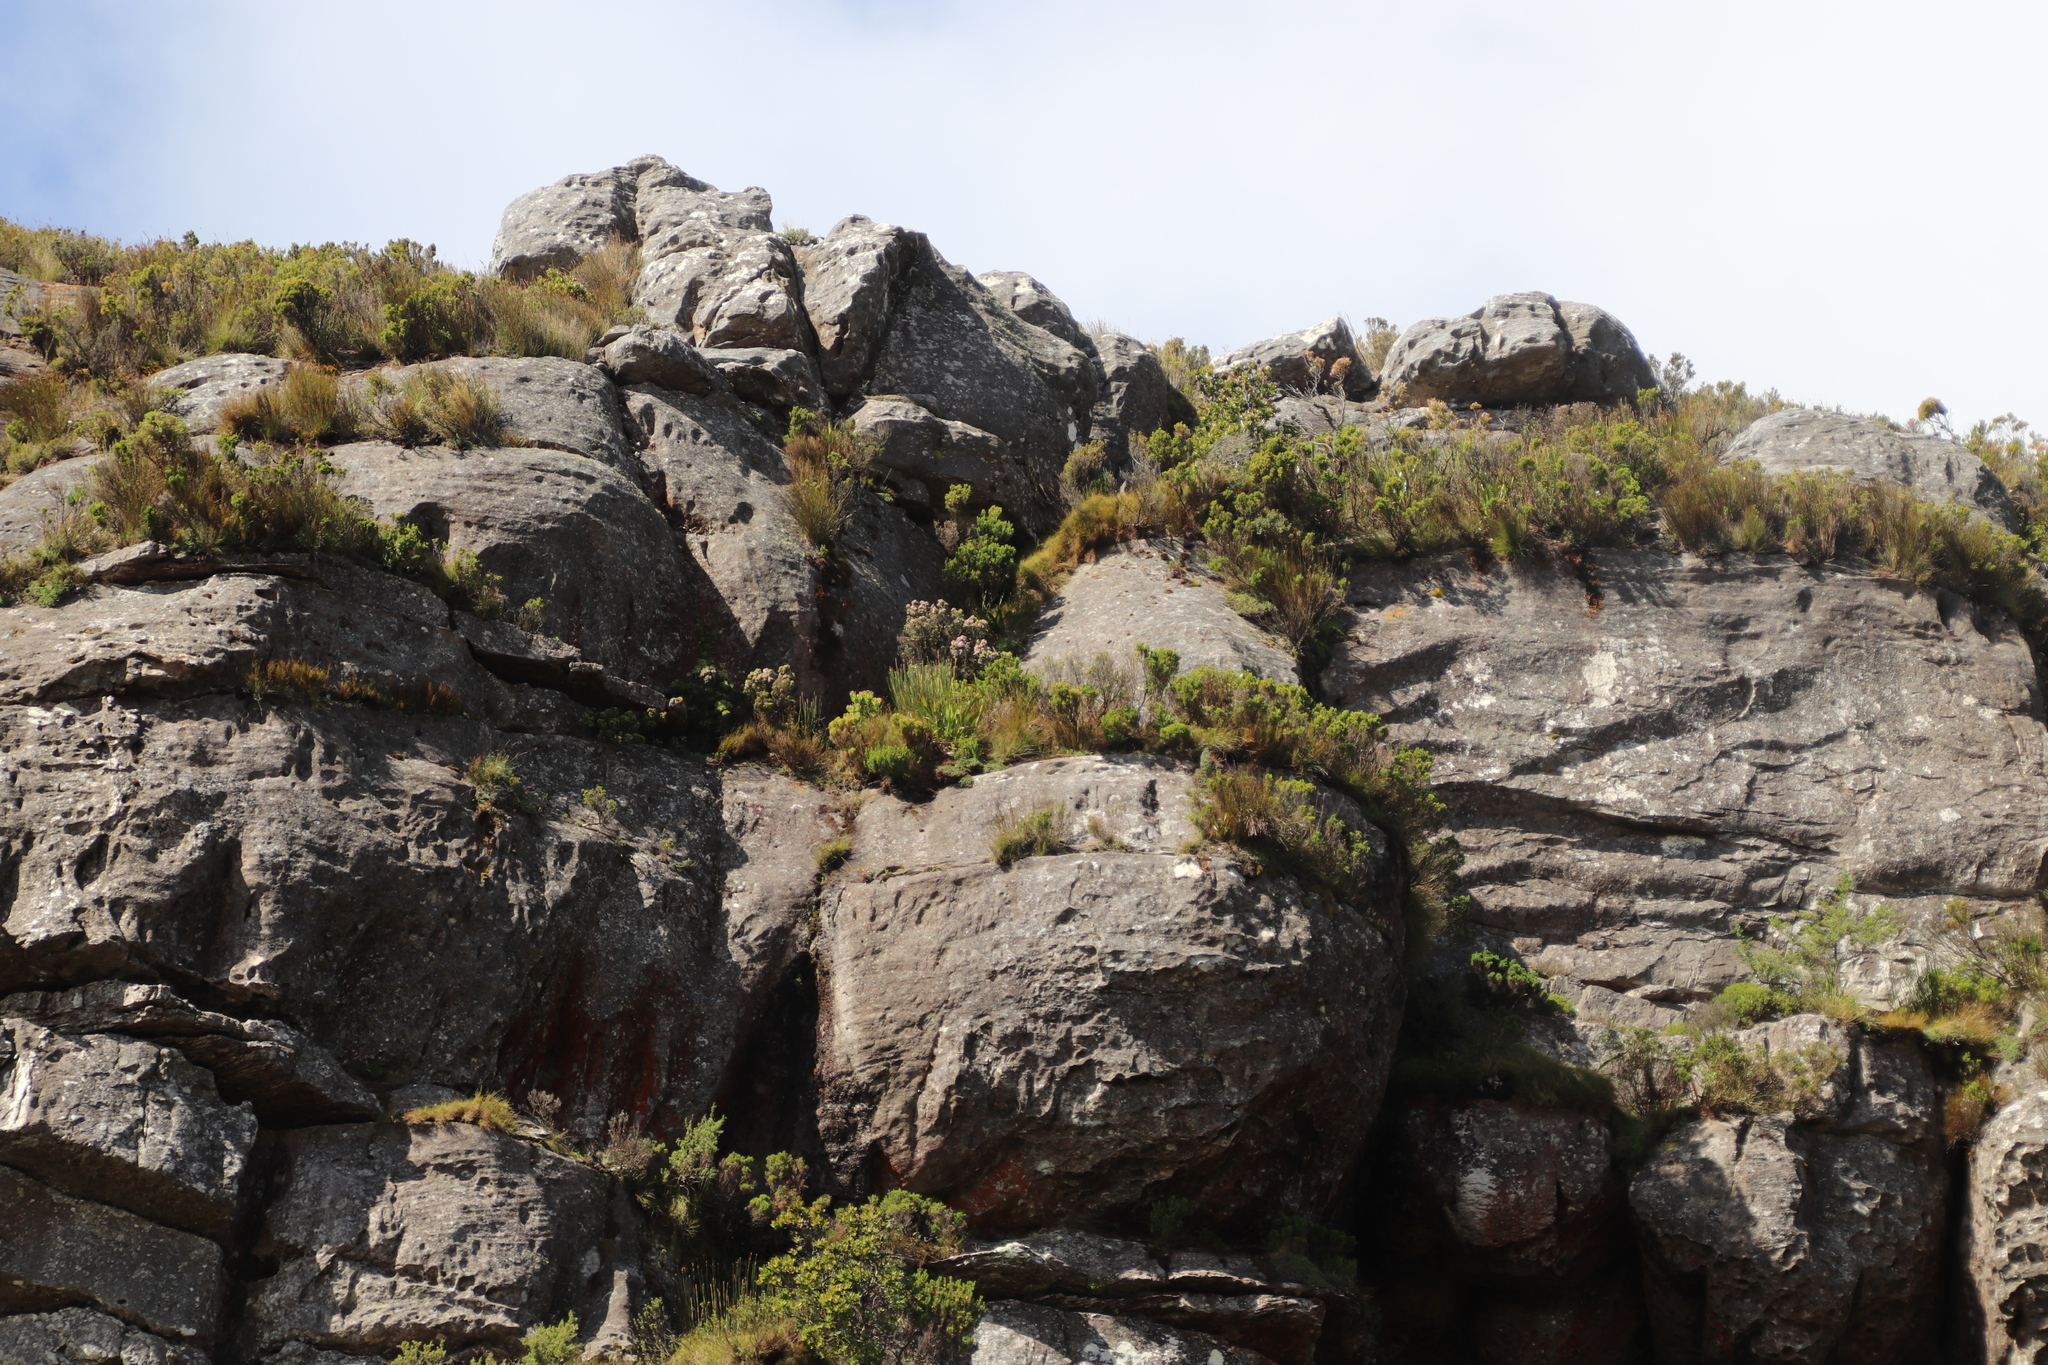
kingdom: Plantae
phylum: Tracheophyta
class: Magnoliopsida
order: Ericales
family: Ericaceae
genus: Erica
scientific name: Erica caterviflora
